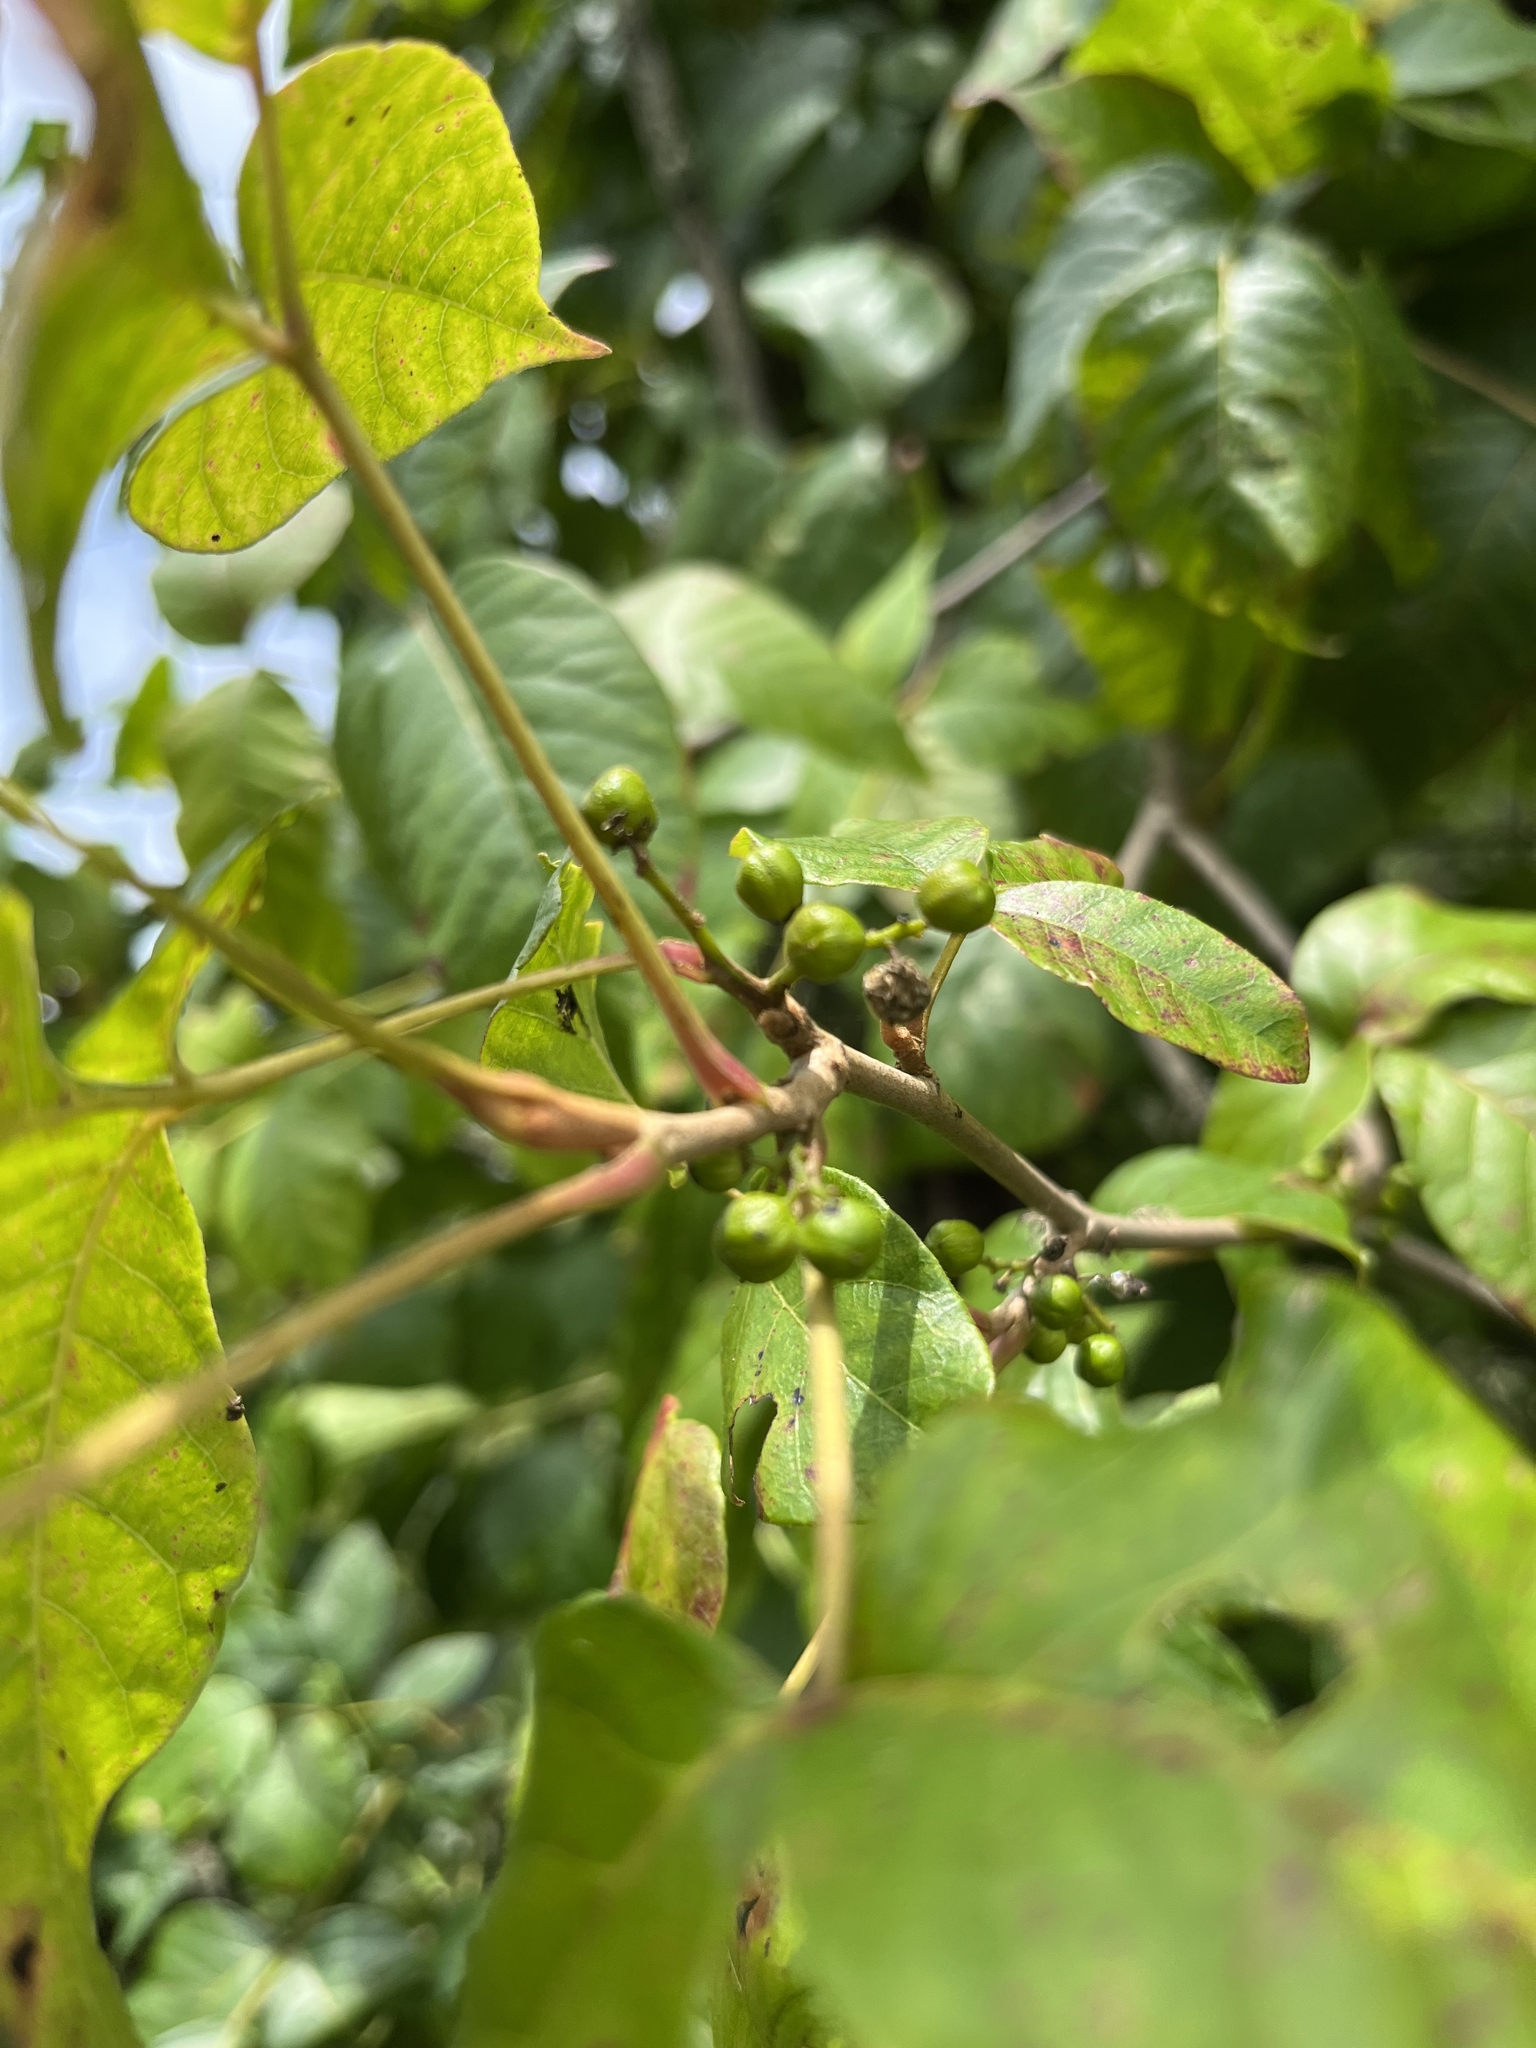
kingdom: Plantae
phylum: Tracheophyta
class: Magnoliopsida
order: Sapindales
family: Anacardiaceae
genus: Toxicodendron
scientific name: Toxicodendron radicans
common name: Poison ivy
